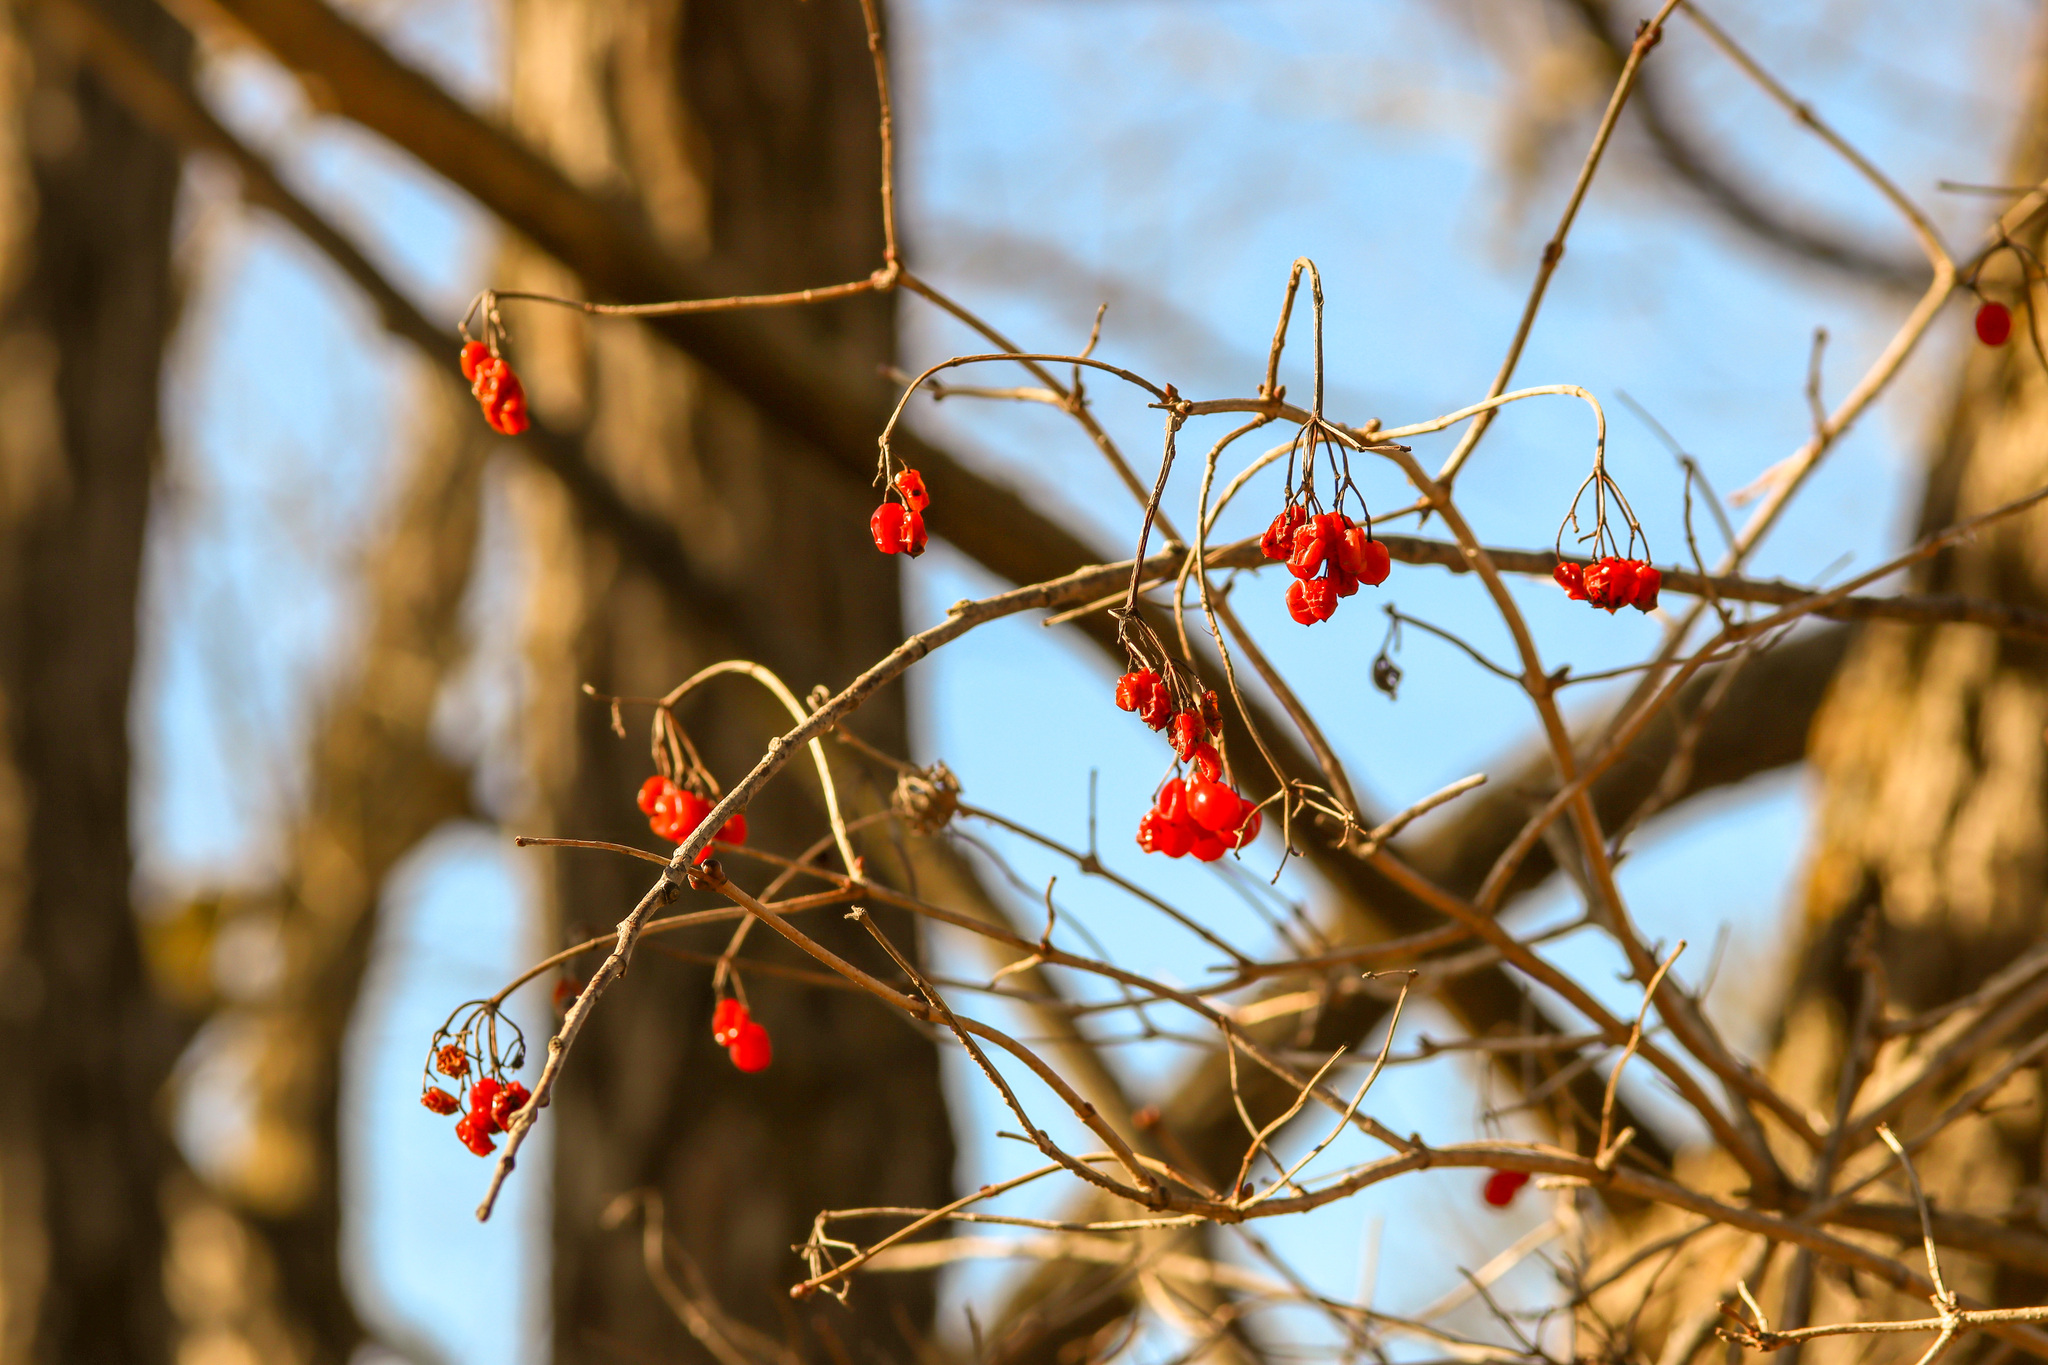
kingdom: Plantae
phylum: Tracheophyta
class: Magnoliopsida
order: Dipsacales
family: Viburnaceae
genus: Viburnum
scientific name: Viburnum opulus
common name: Guelder-rose
